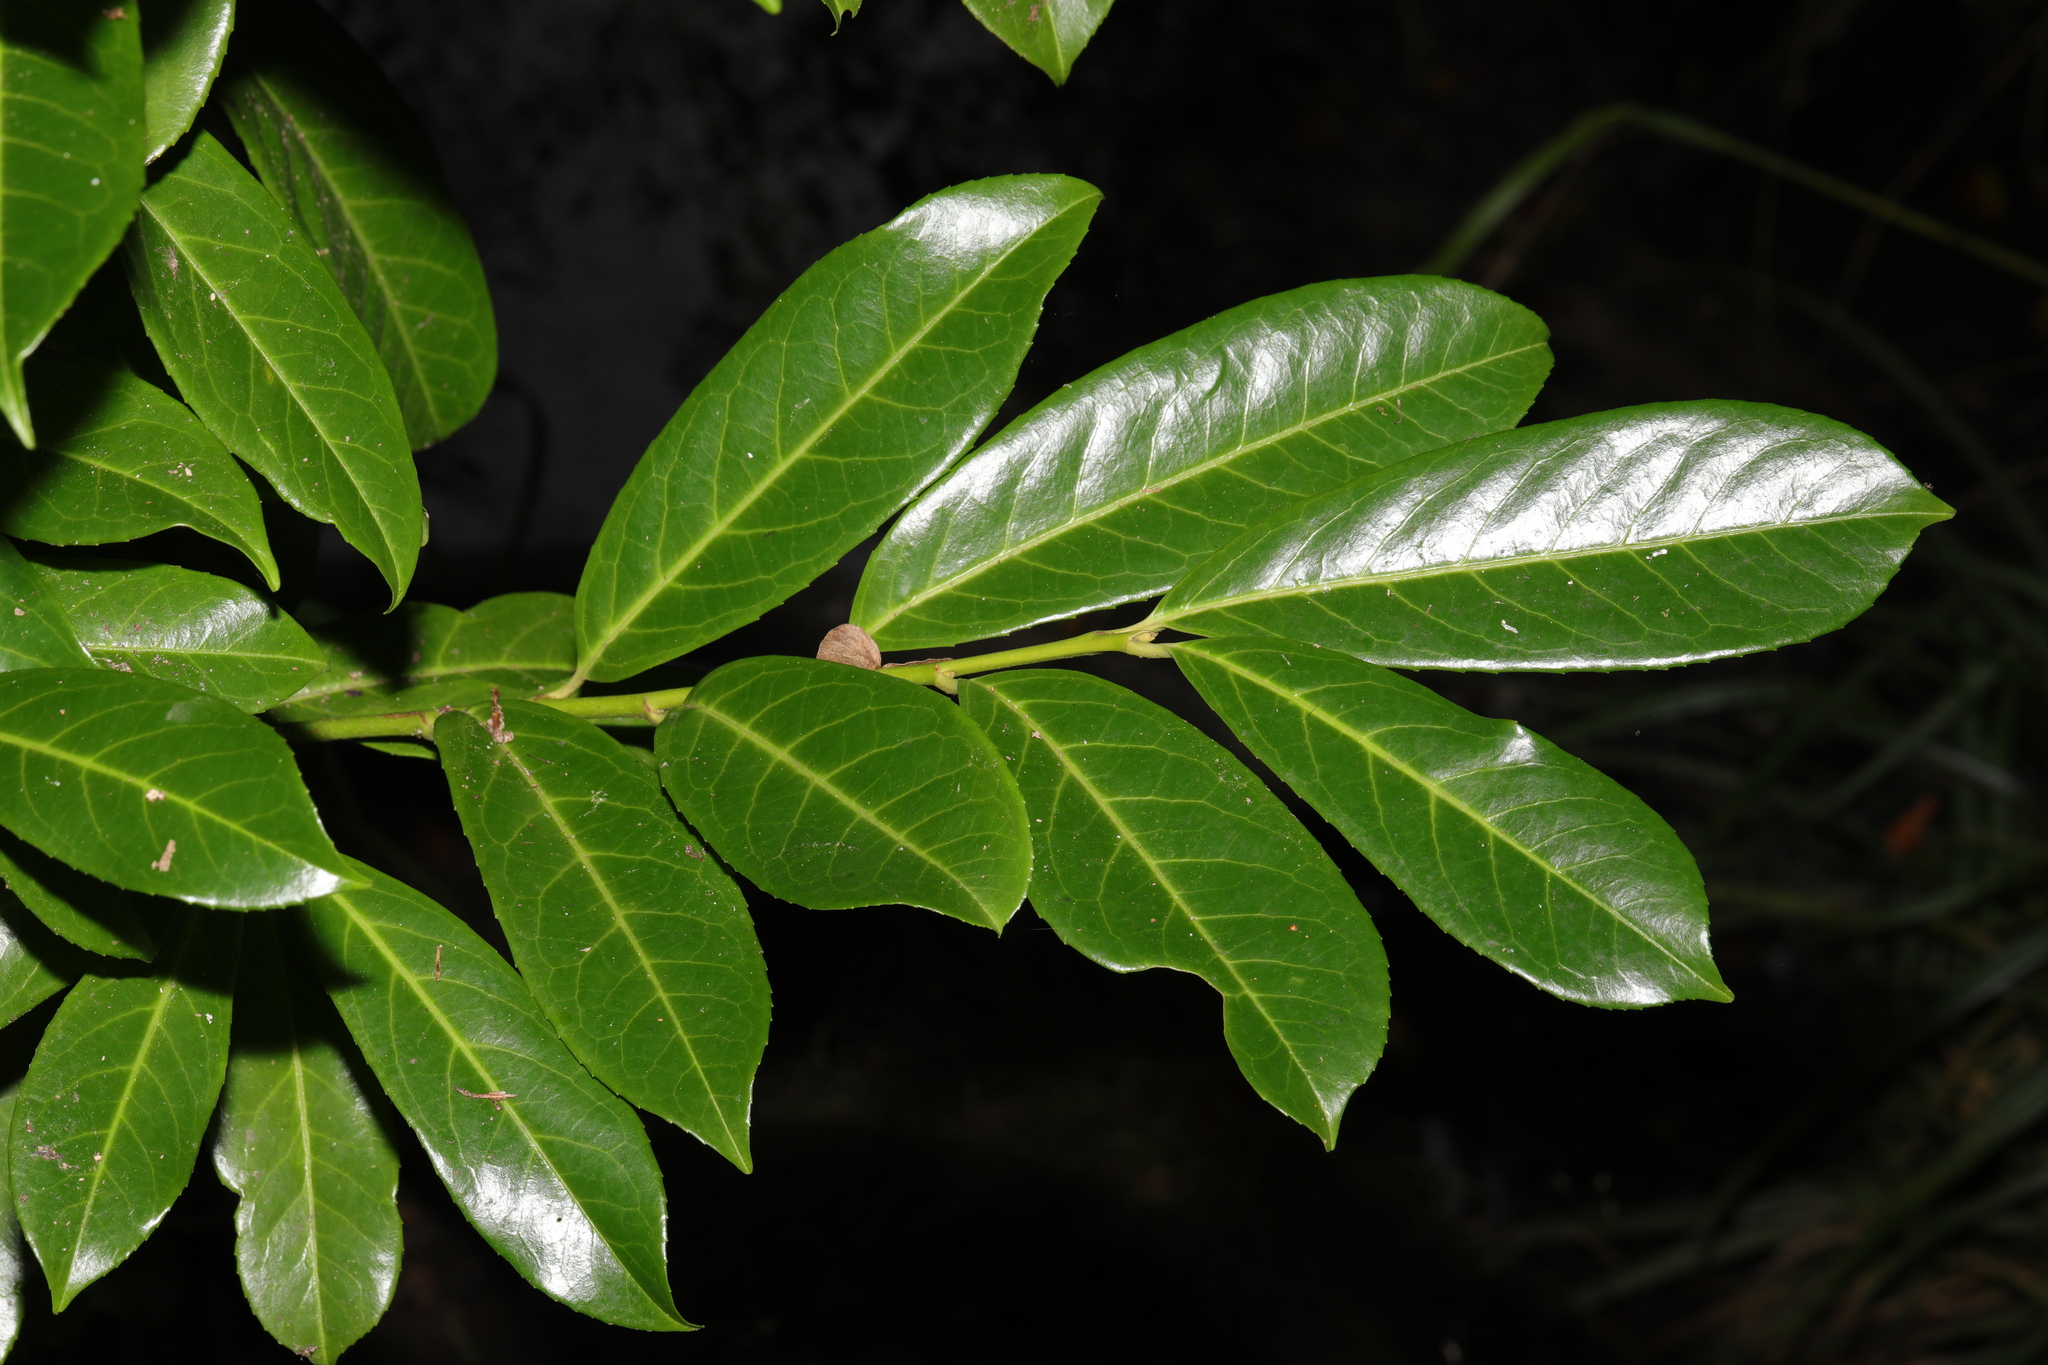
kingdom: Plantae
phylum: Tracheophyta
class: Magnoliopsida
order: Rosales
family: Rosaceae
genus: Prunus
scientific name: Prunus laurocerasus
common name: Cherry laurel
